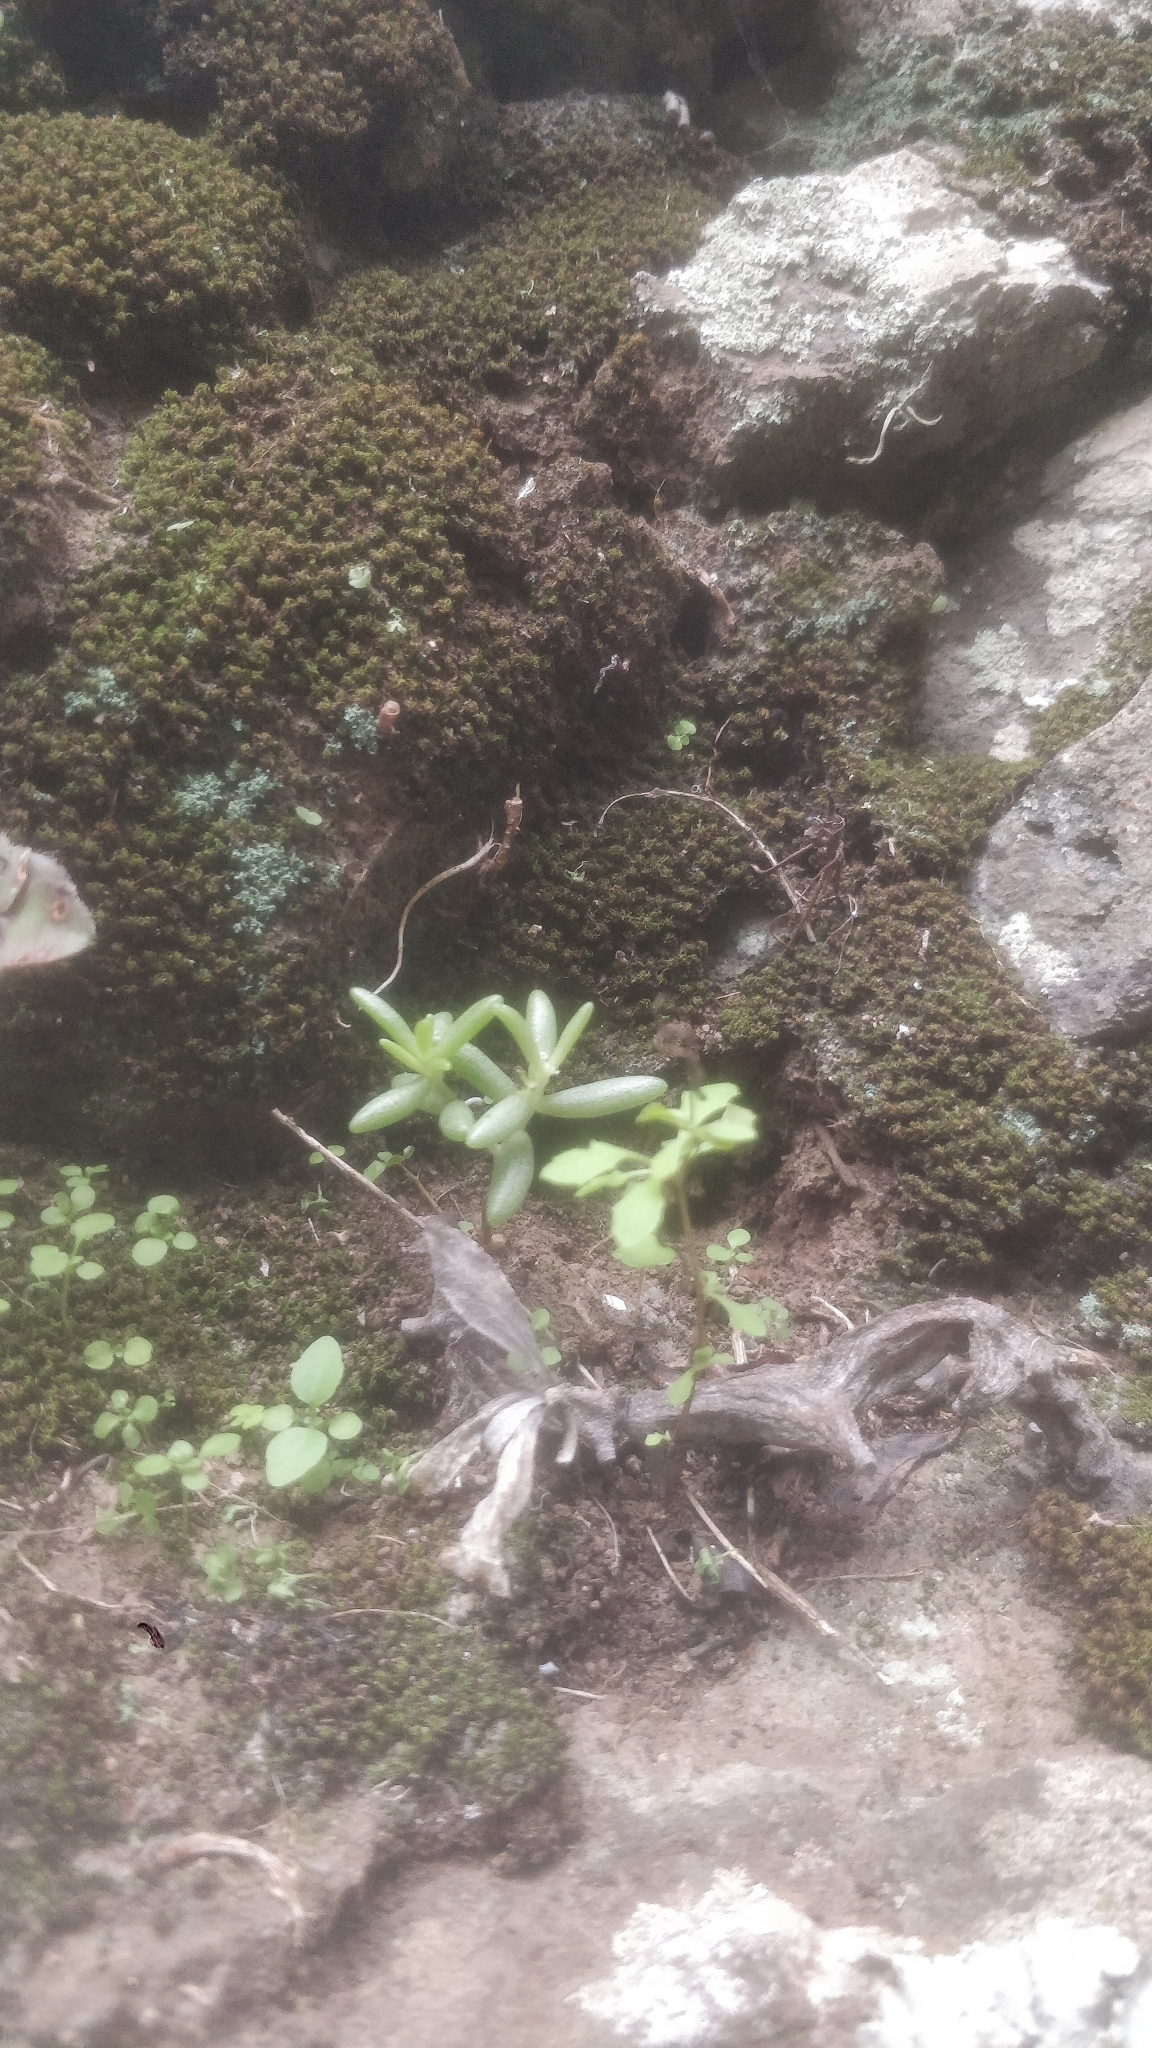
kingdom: Plantae
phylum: Tracheophyta
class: Magnoliopsida
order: Saxifragales
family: Crassulaceae
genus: Sedum
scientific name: Sedum fusiforme
